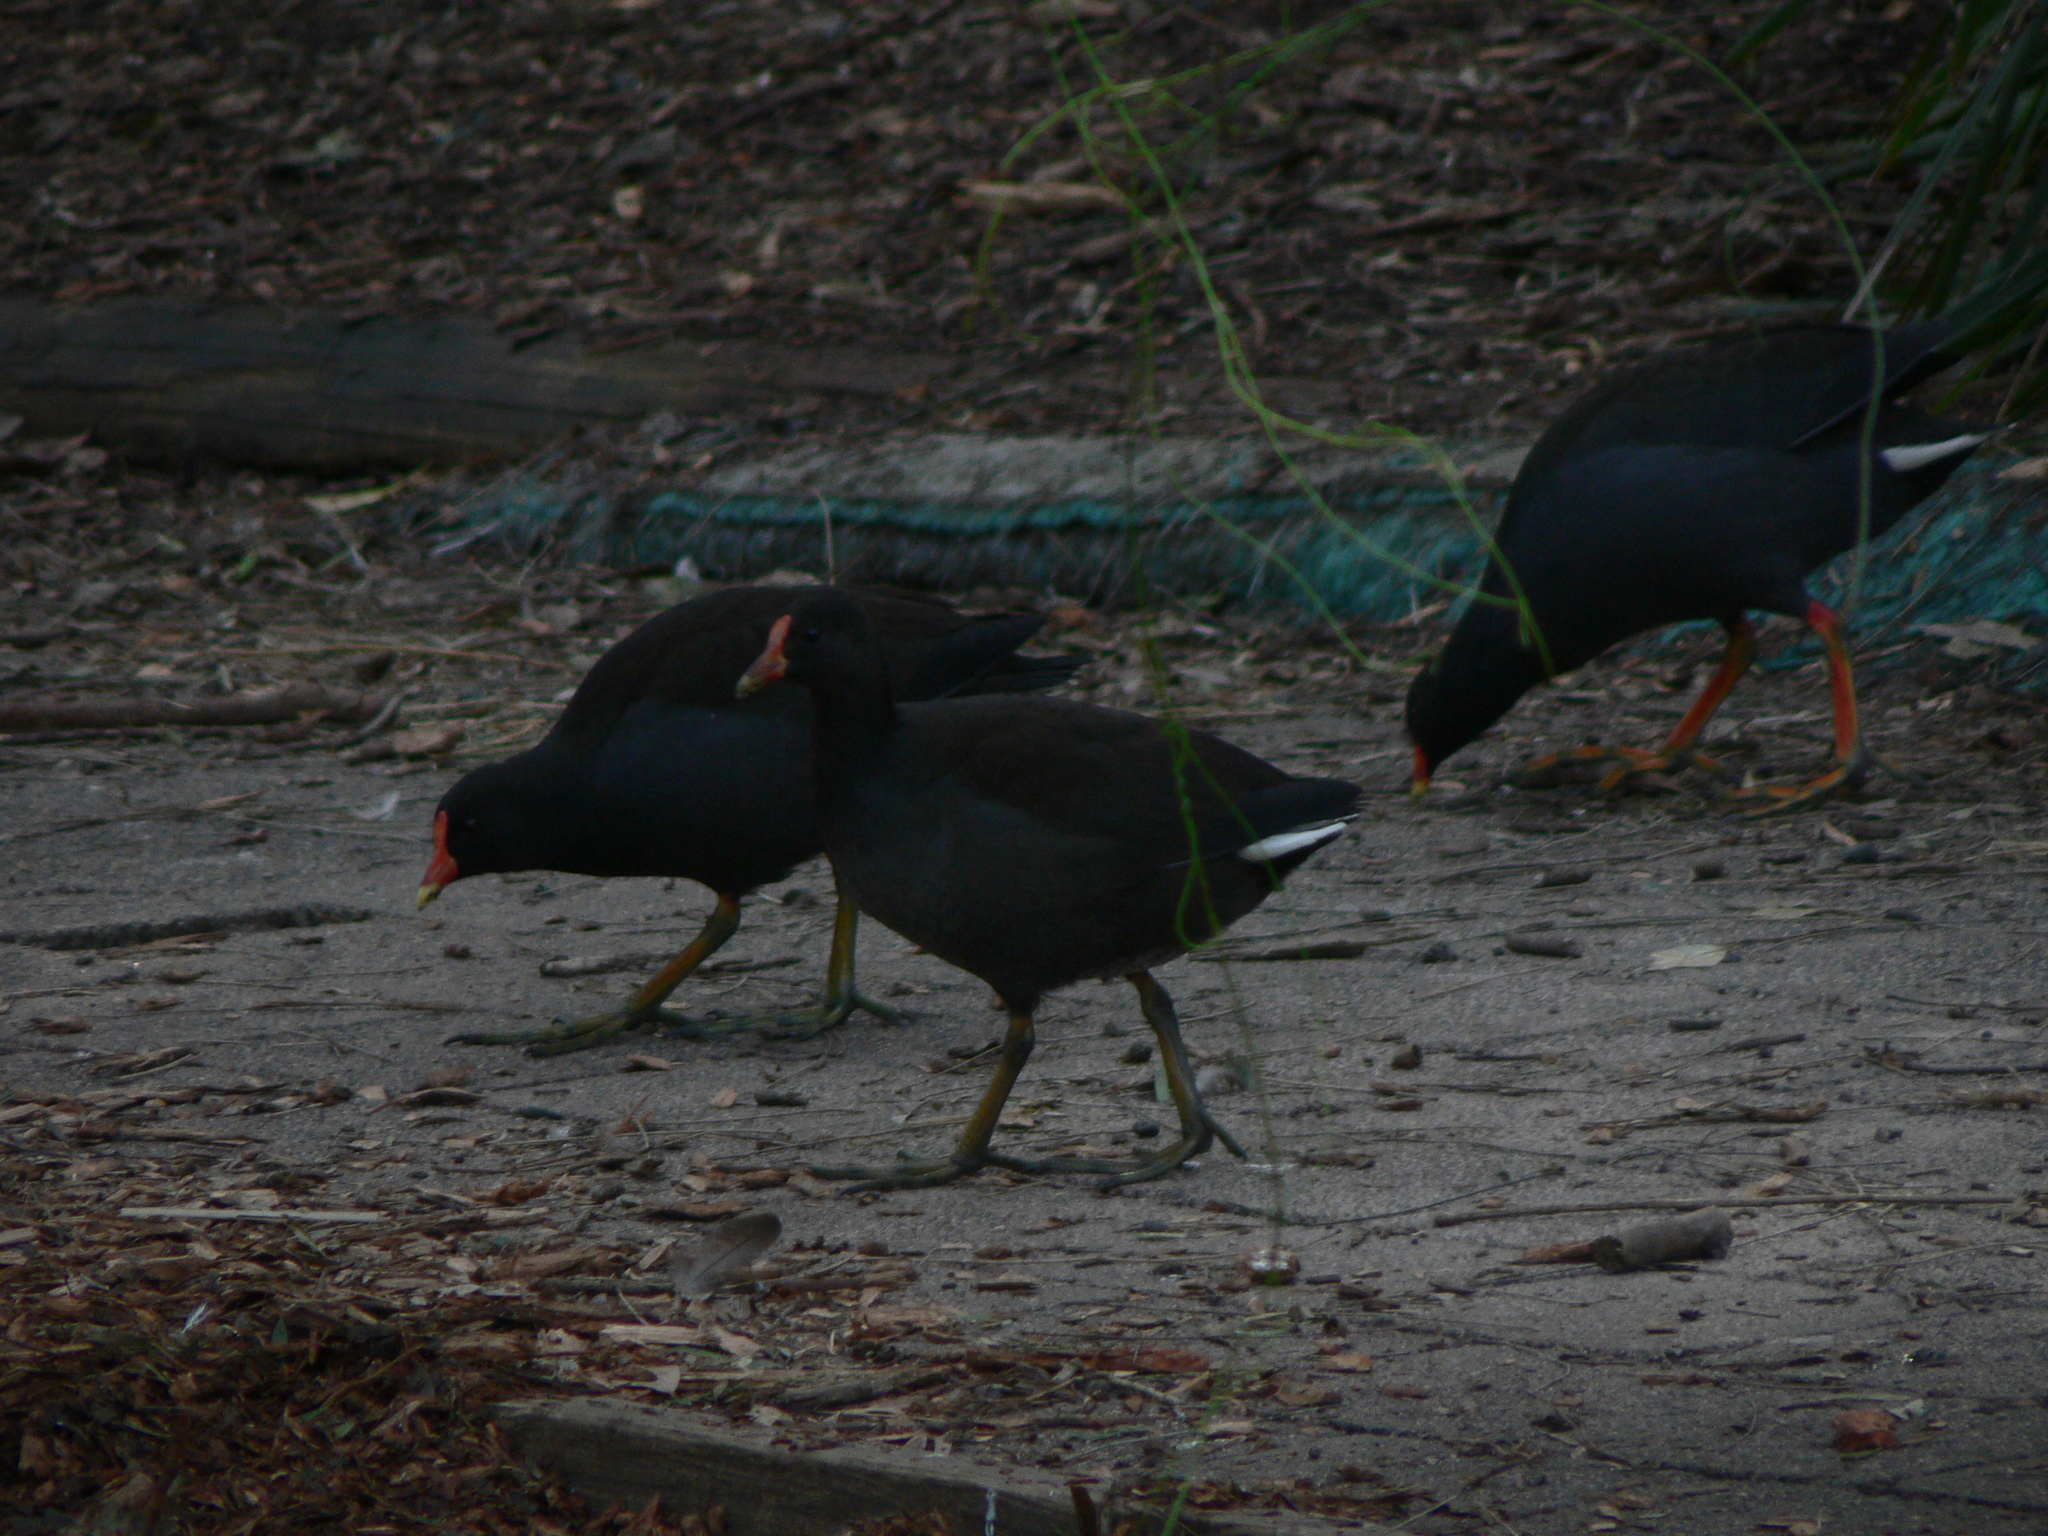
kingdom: Animalia
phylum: Chordata
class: Aves
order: Gruiformes
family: Rallidae
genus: Gallinula
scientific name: Gallinula tenebrosa
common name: Dusky moorhen
